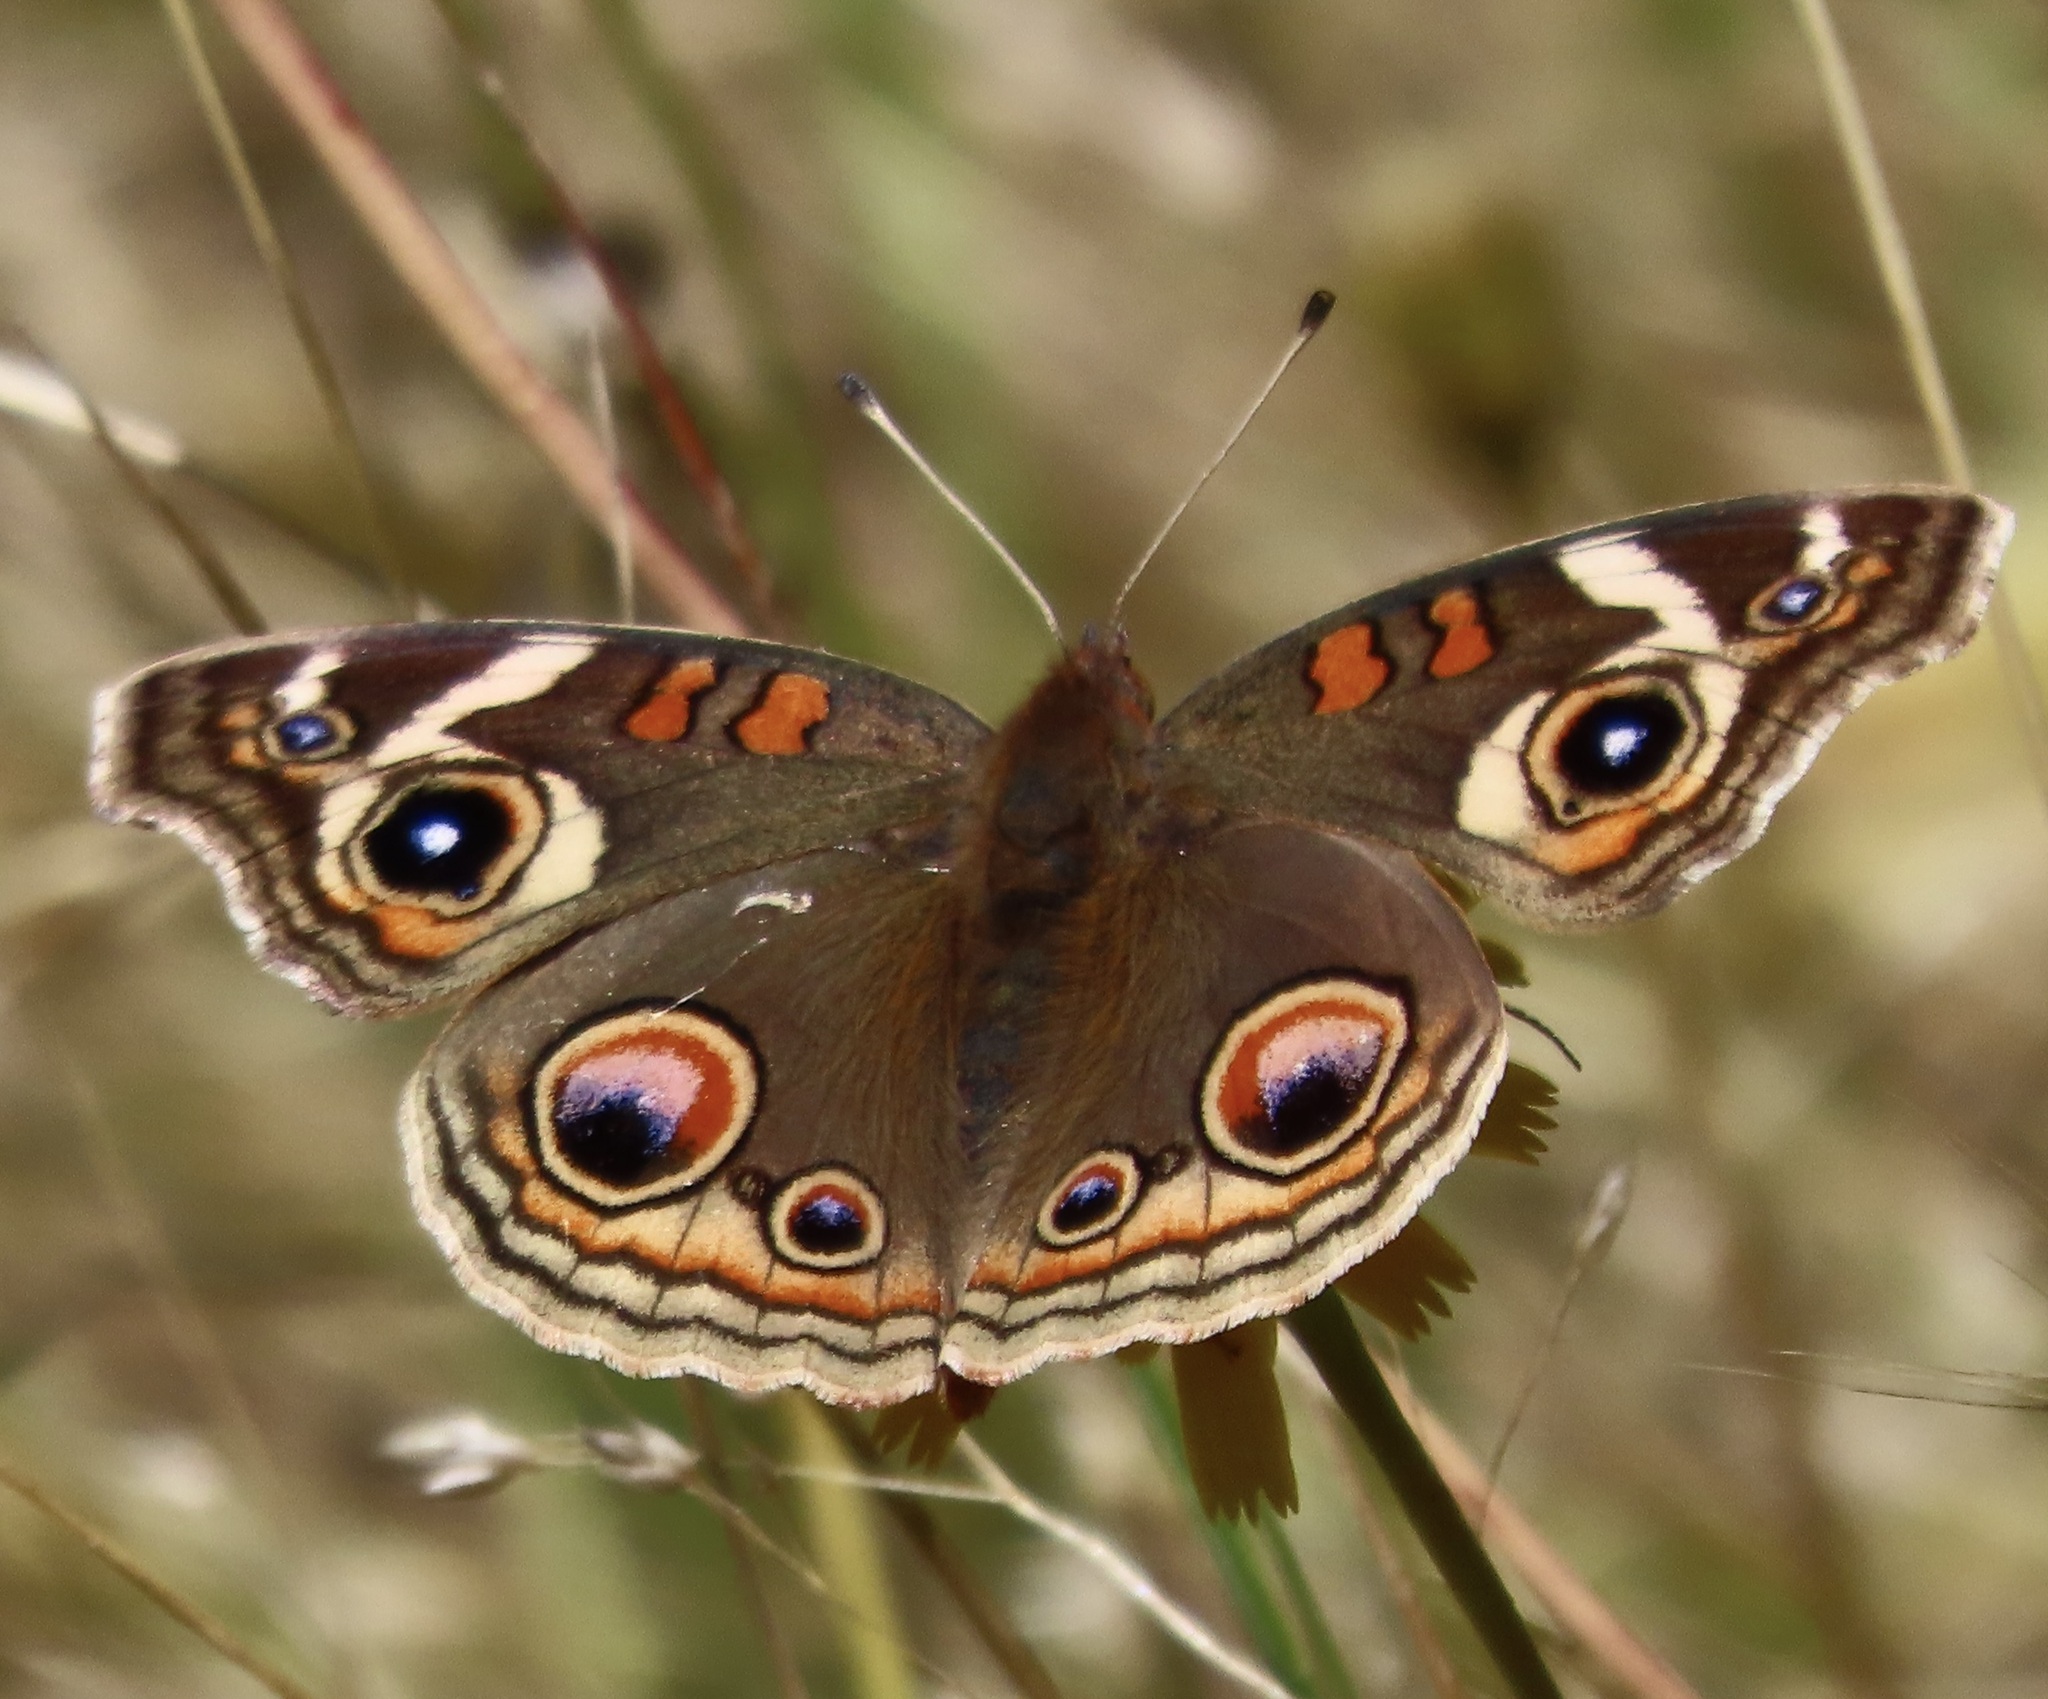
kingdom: Animalia
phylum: Arthropoda
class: Insecta
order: Lepidoptera
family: Nymphalidae
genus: Junonia
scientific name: Junonia grisea
